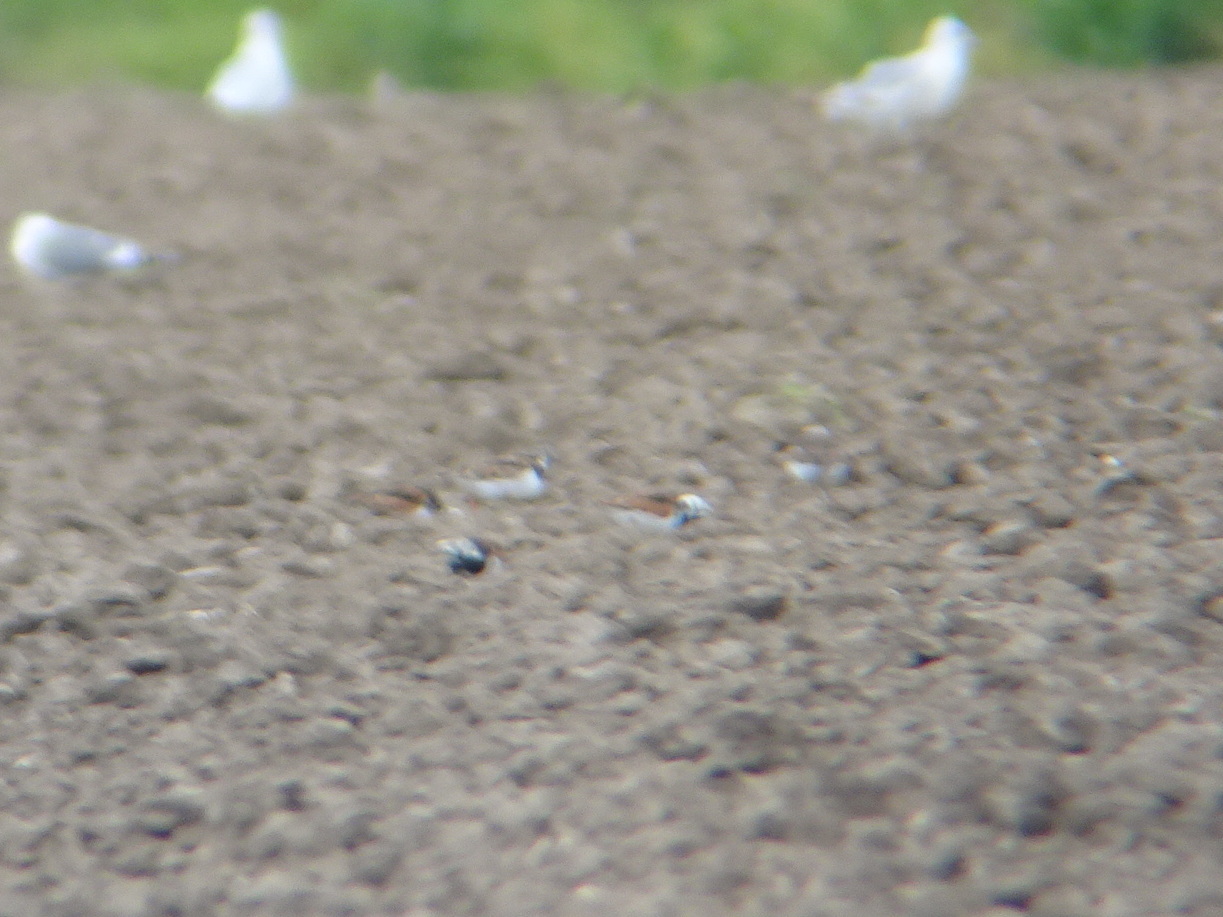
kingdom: Animalia
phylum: Chordata
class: Aves
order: Charadriiformes
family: Scolopacidae
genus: Arenaria
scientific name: Arenaria interpres
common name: Ruddy turnstone
